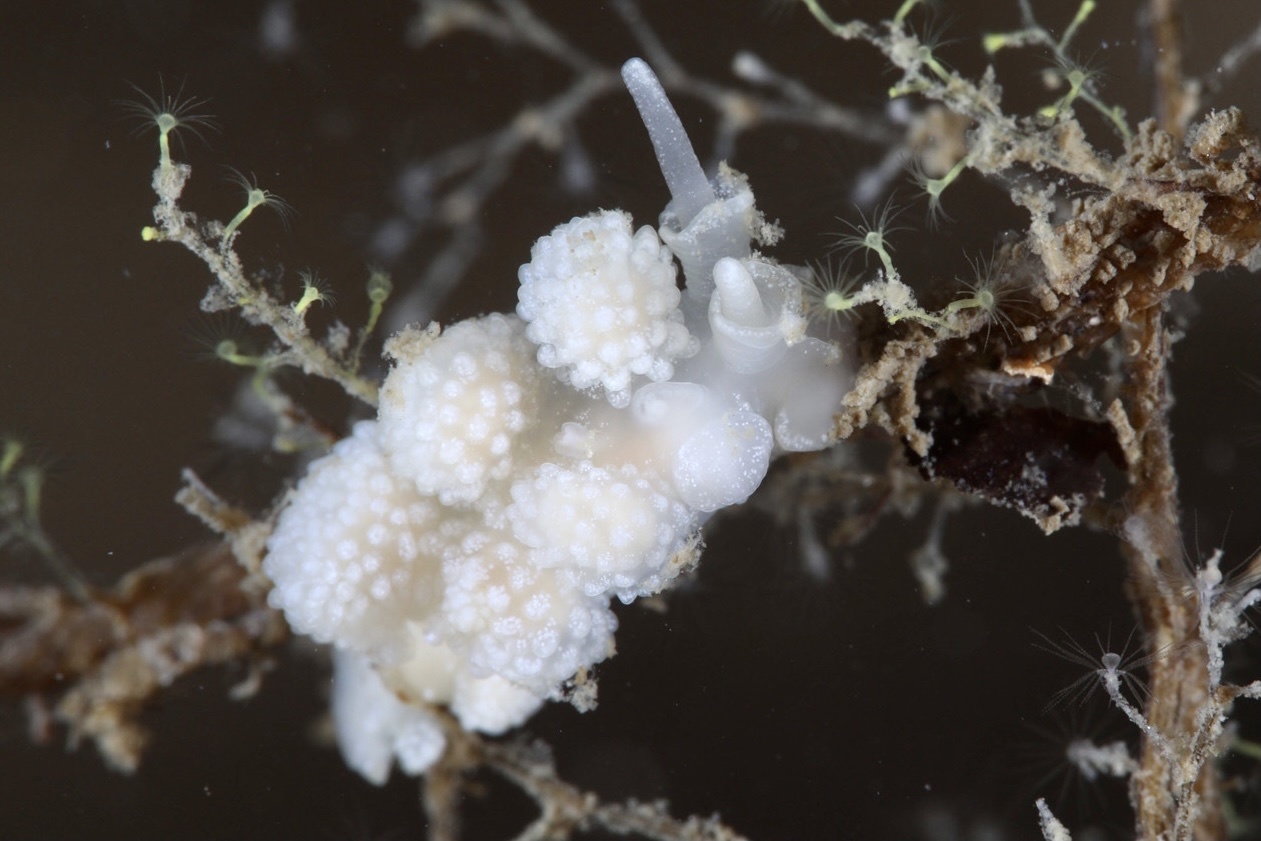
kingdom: Animalia
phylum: Mollusca
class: Gastropoda
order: Nudibranchia
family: Dotidae
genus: Doto
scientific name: Doto fragilis
